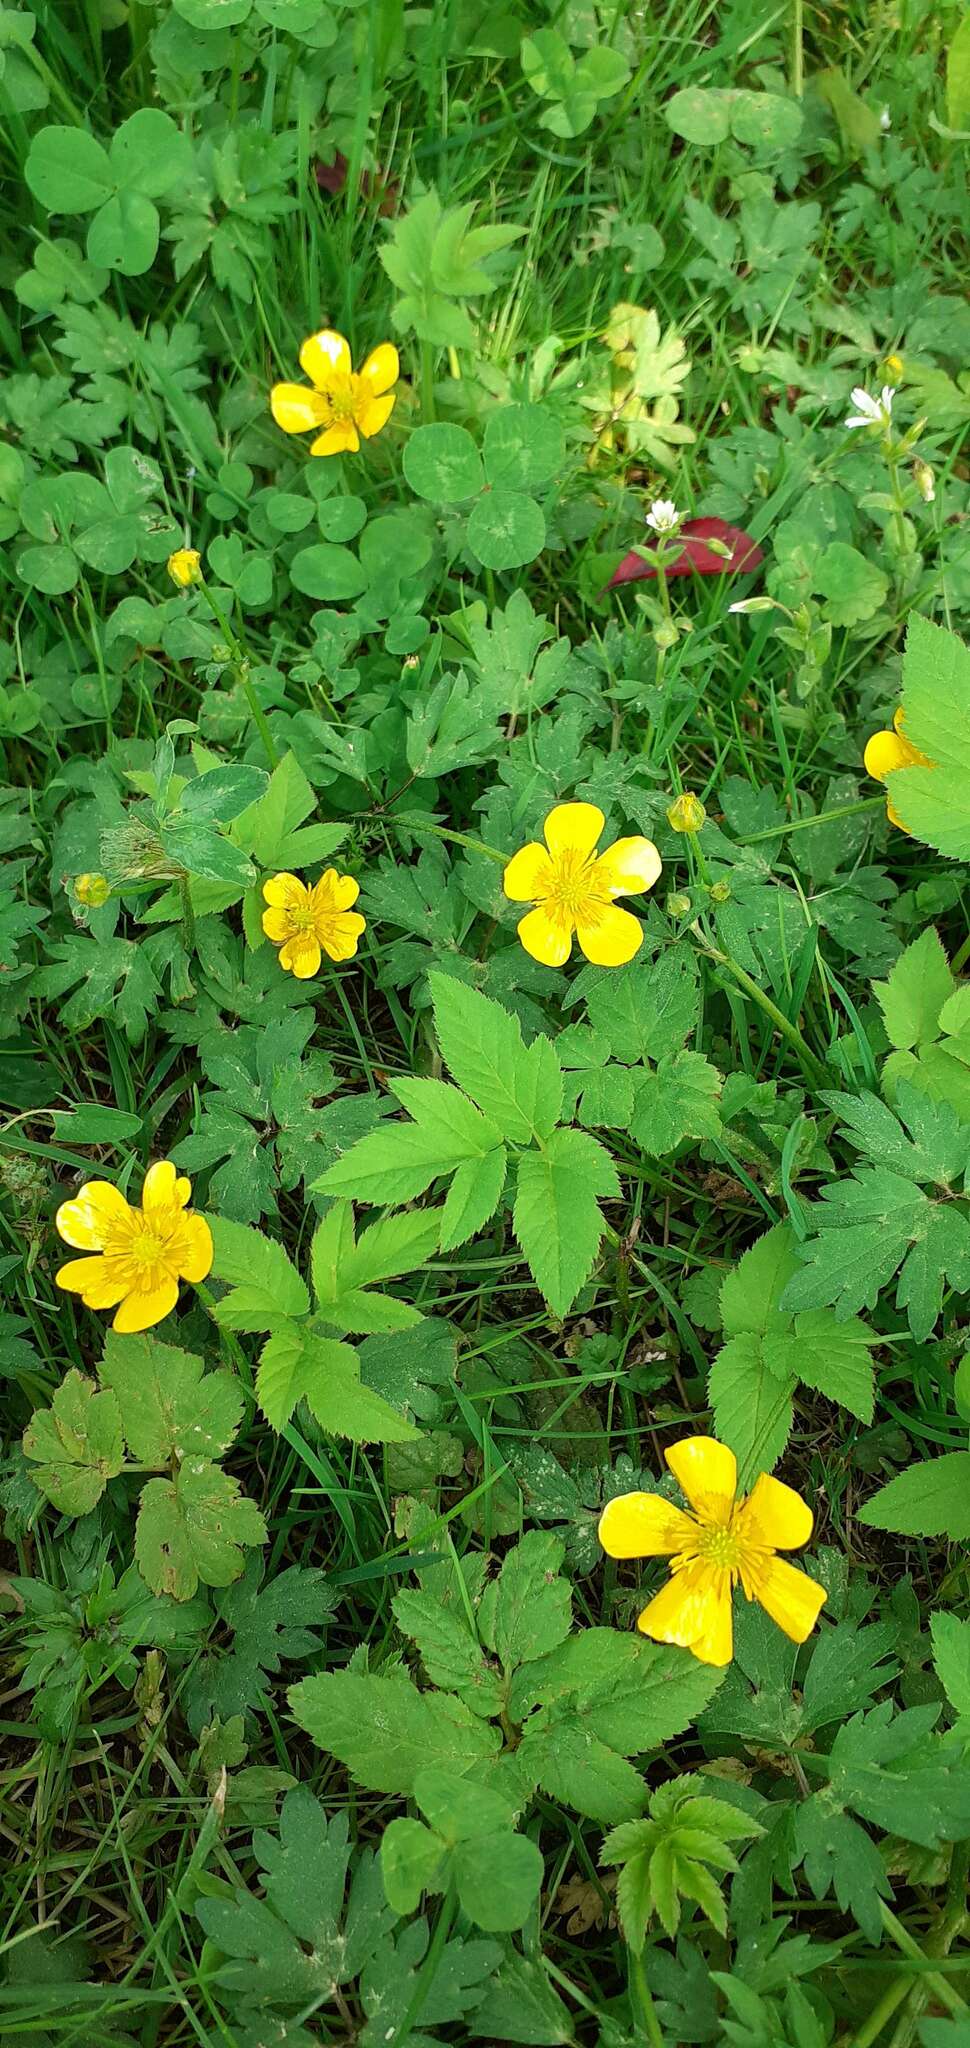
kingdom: Plantae
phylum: Tracheophyta
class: Magnoliopsida
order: Ranunculales
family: Ranunculaceae
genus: Ranunculus
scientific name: Ranunculus acris
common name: Meadow buttercup
